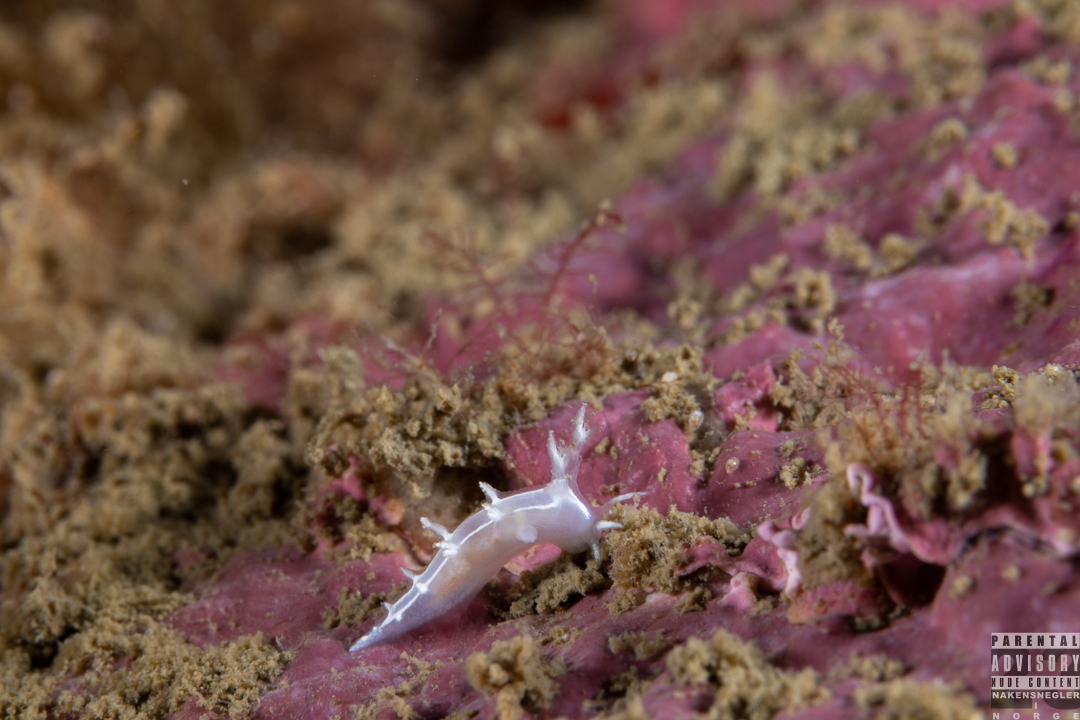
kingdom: Animalia
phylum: Mollusca
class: Gastropoda
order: Nudibranchia
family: Tritoniidae
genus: Duvaucelia
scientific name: Duvaucelia lineata
